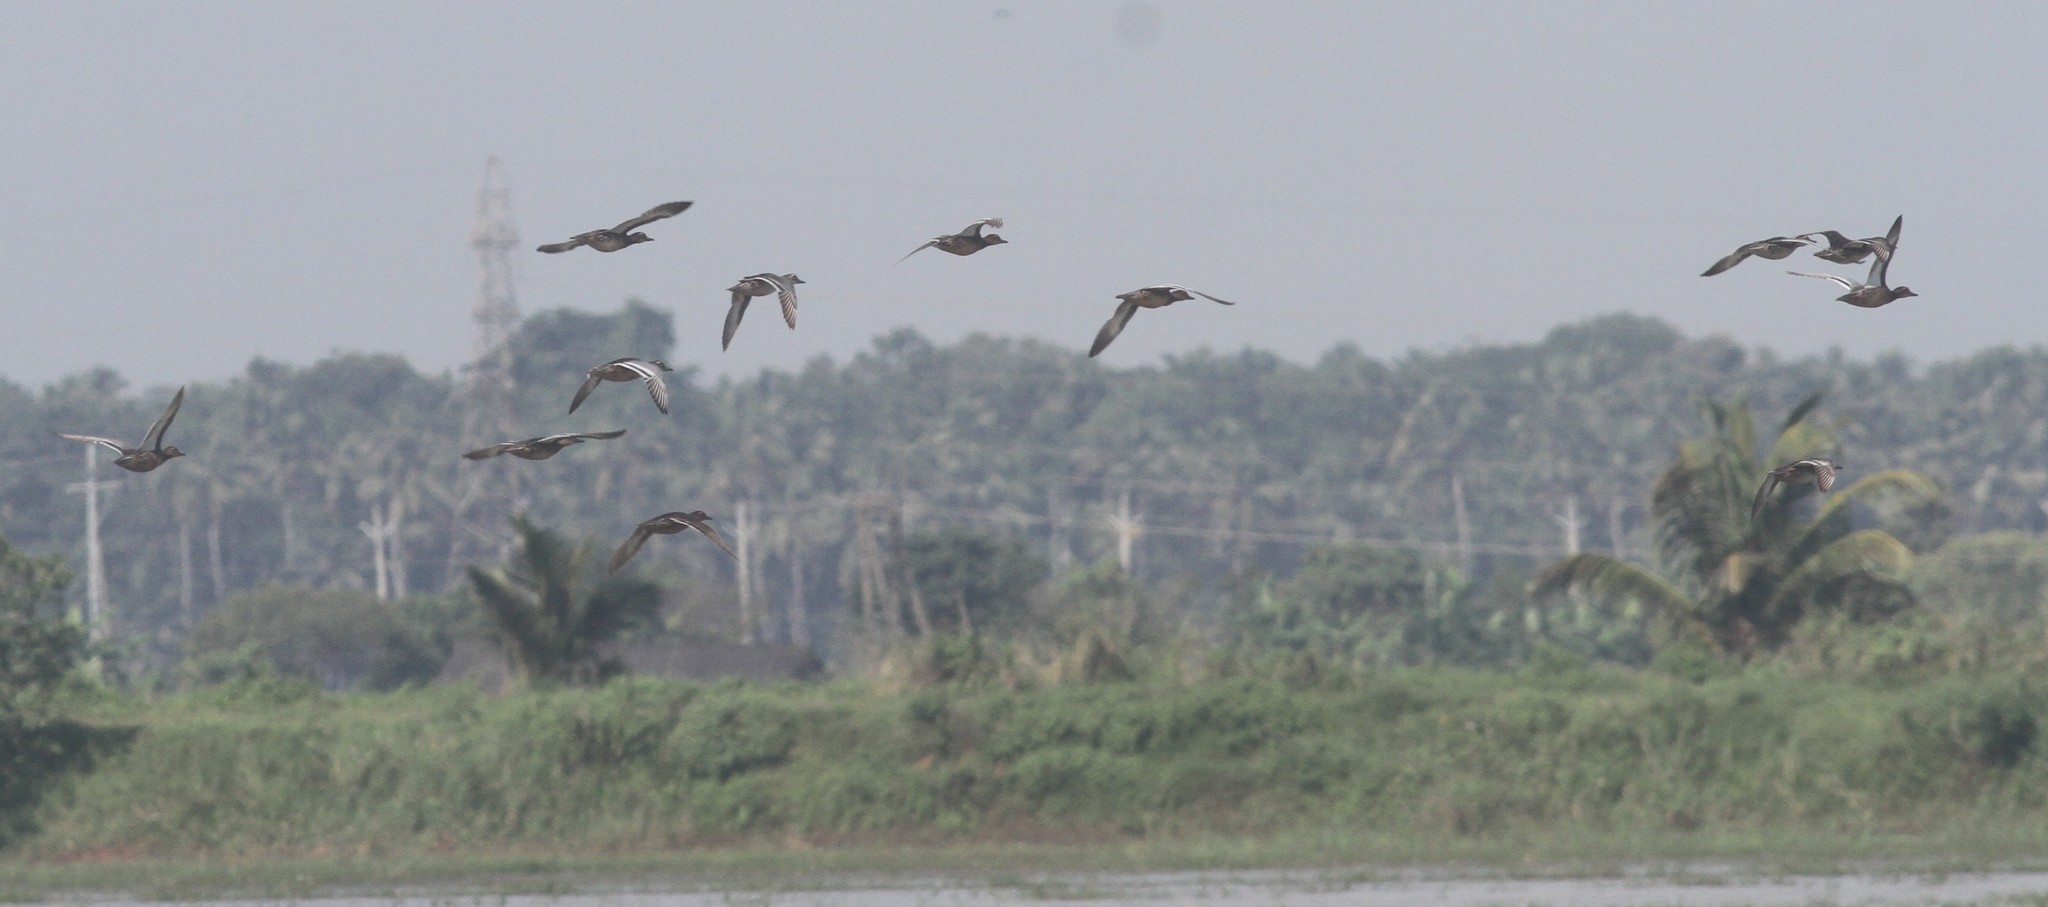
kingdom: Animalia
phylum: Chordata
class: Aves
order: Anseriformes
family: Anatidae
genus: Spatula
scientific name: Spatula querquedula
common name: Garganey
